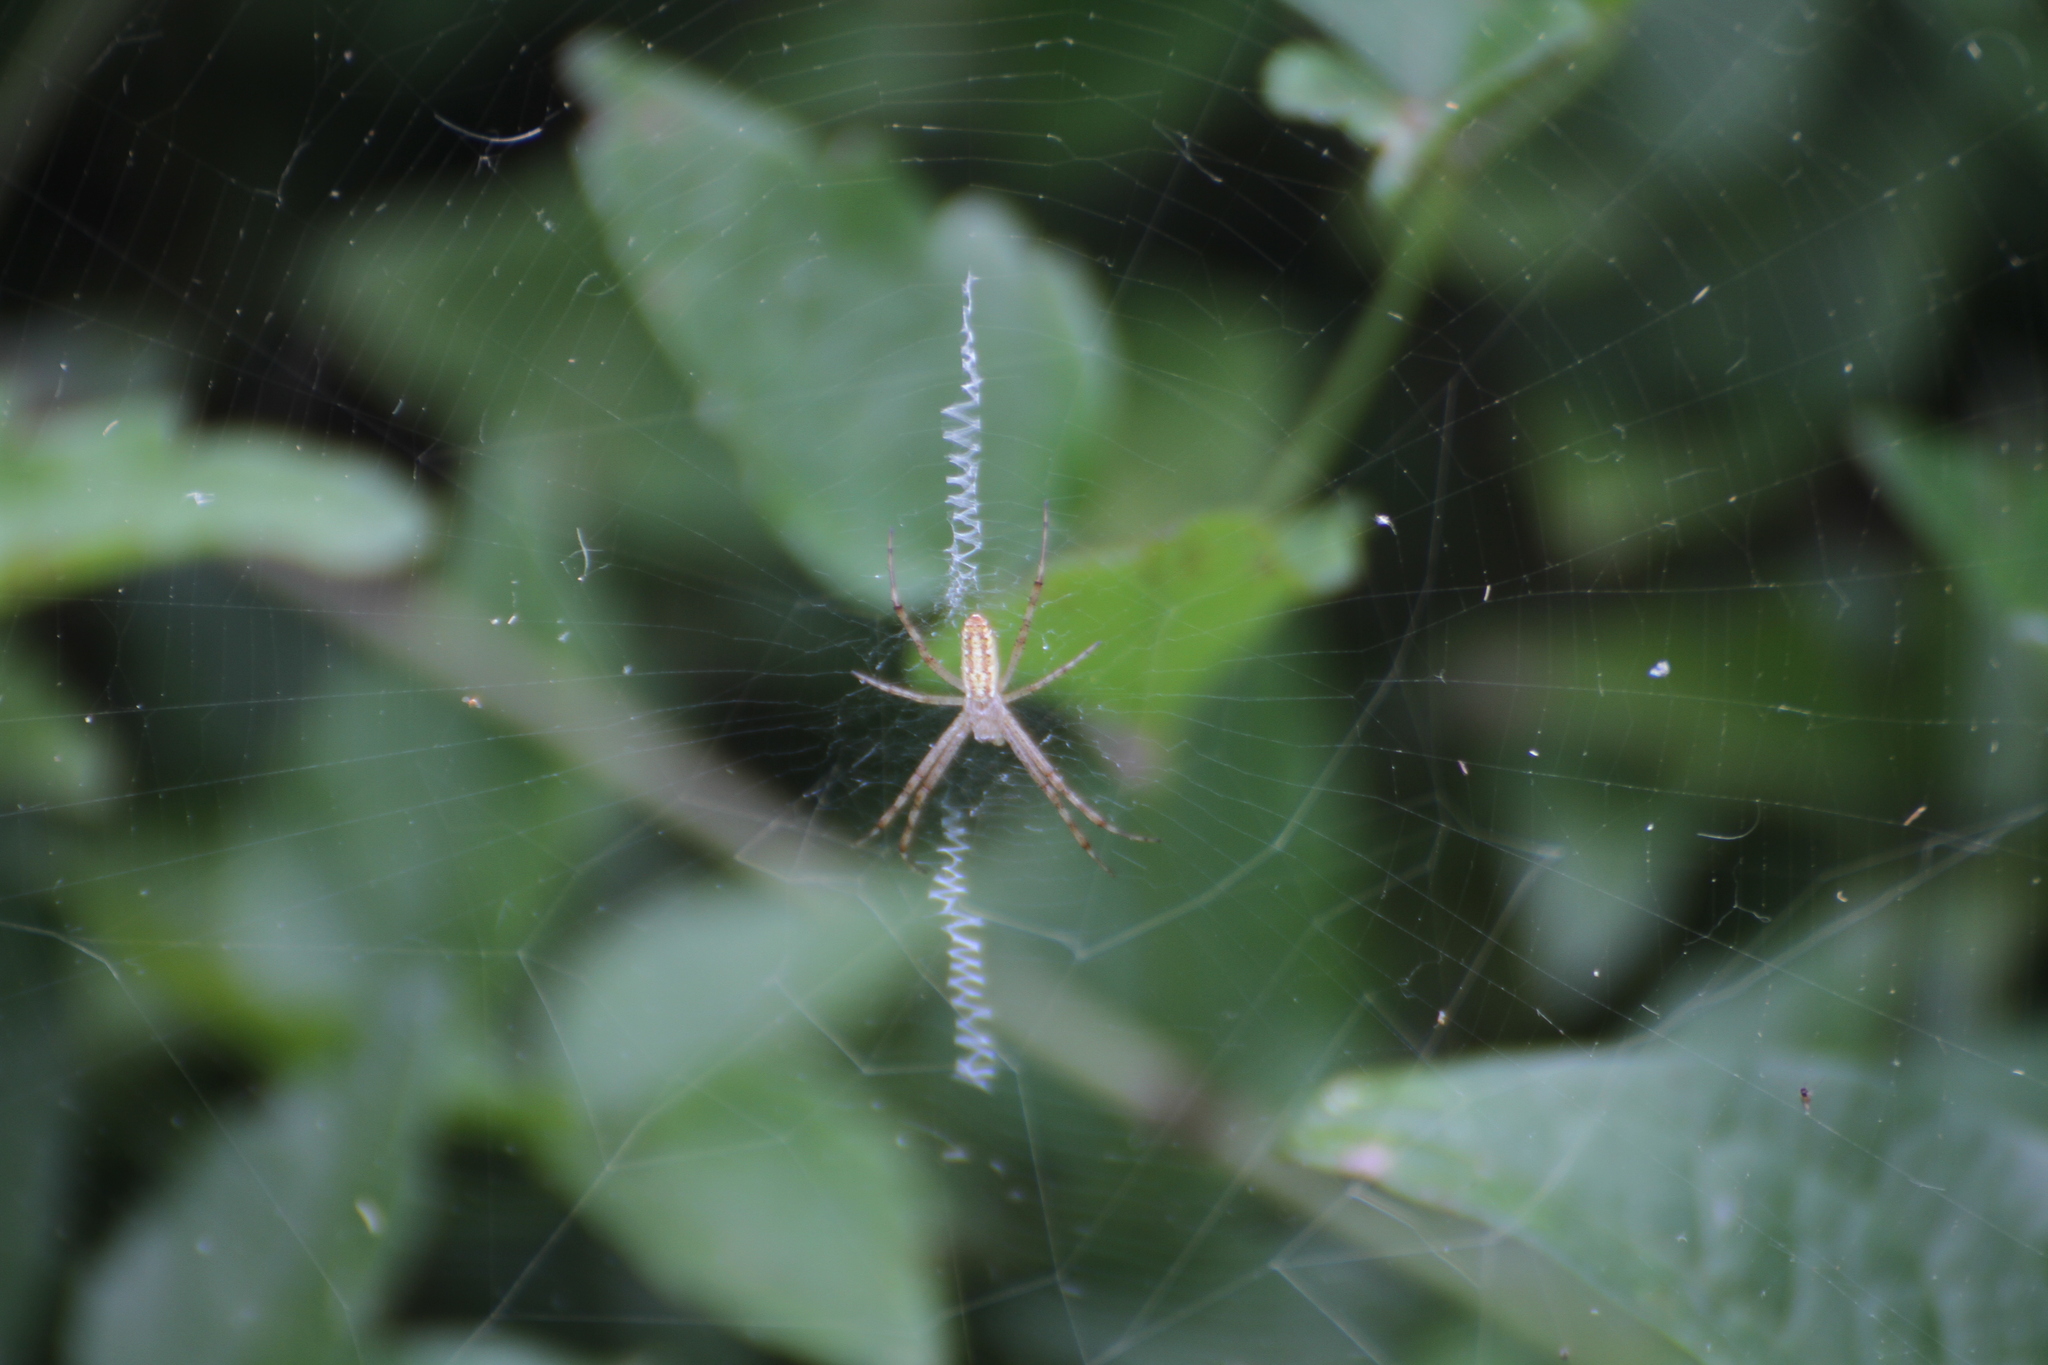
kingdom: Animalia
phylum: Arthropoda
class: Arachnida
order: Araneae
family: Araneidae
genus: Argiope
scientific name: Argiope bruennichi
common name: Wasp spider
